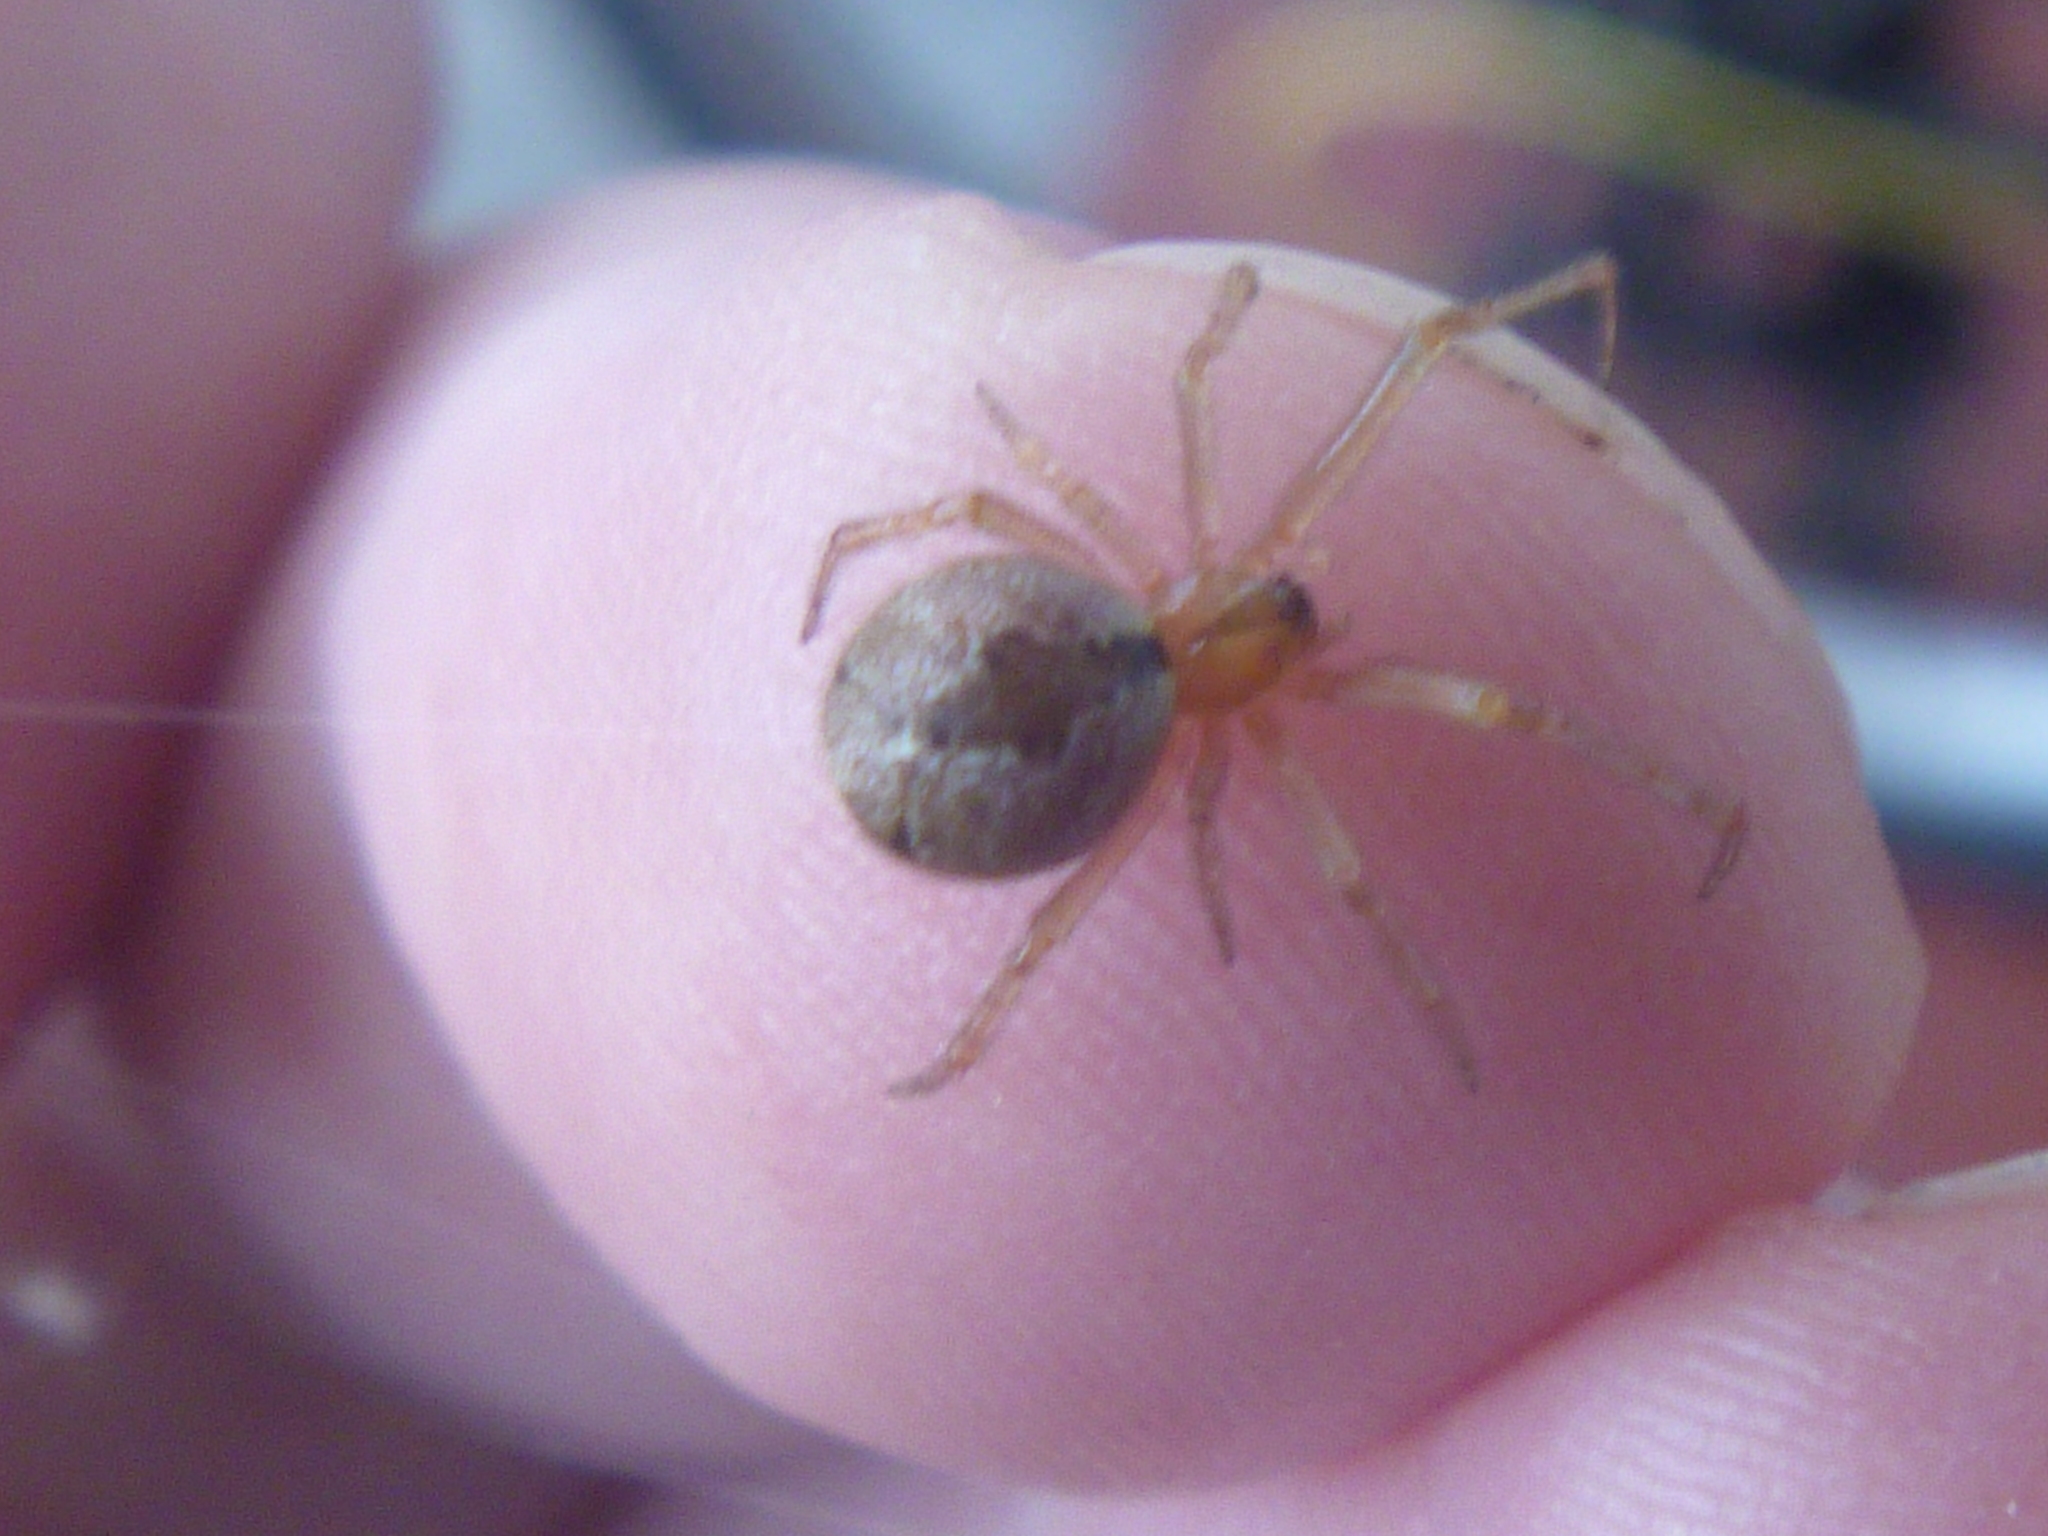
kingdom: Animalia
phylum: Arthropoda
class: Arachnida
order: Araneae
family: Theridiidae
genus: Cryptachaea
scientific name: Cryptachaea veruculata
